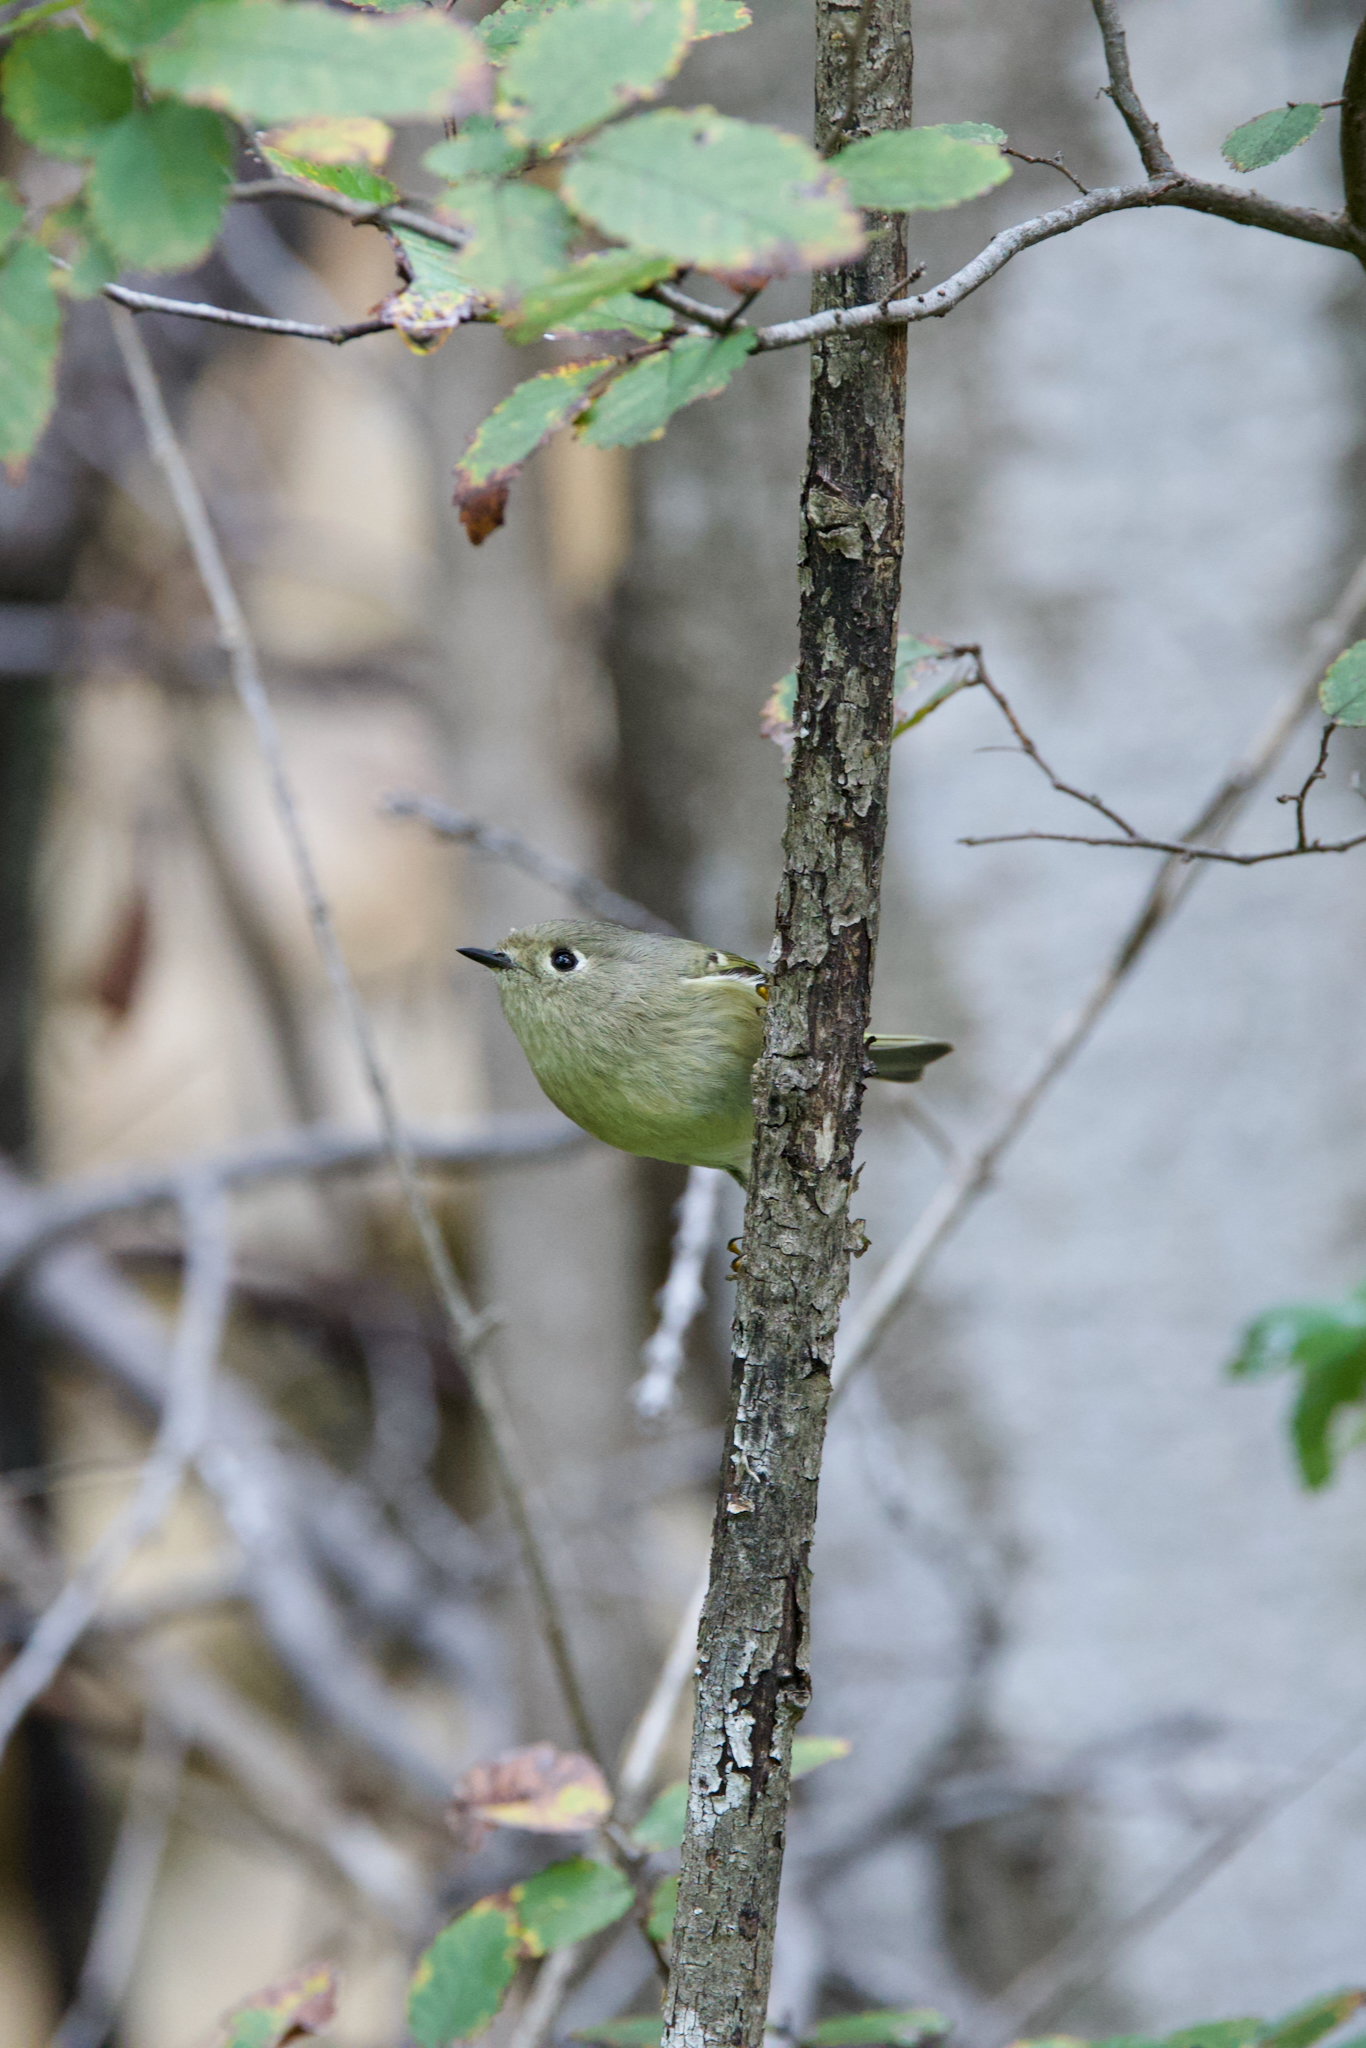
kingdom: Animalia
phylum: Chordata
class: Aves
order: Passeriformes
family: Regulidae
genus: Regulus
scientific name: Regulus calendula
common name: Ruby-crowned kinglet
